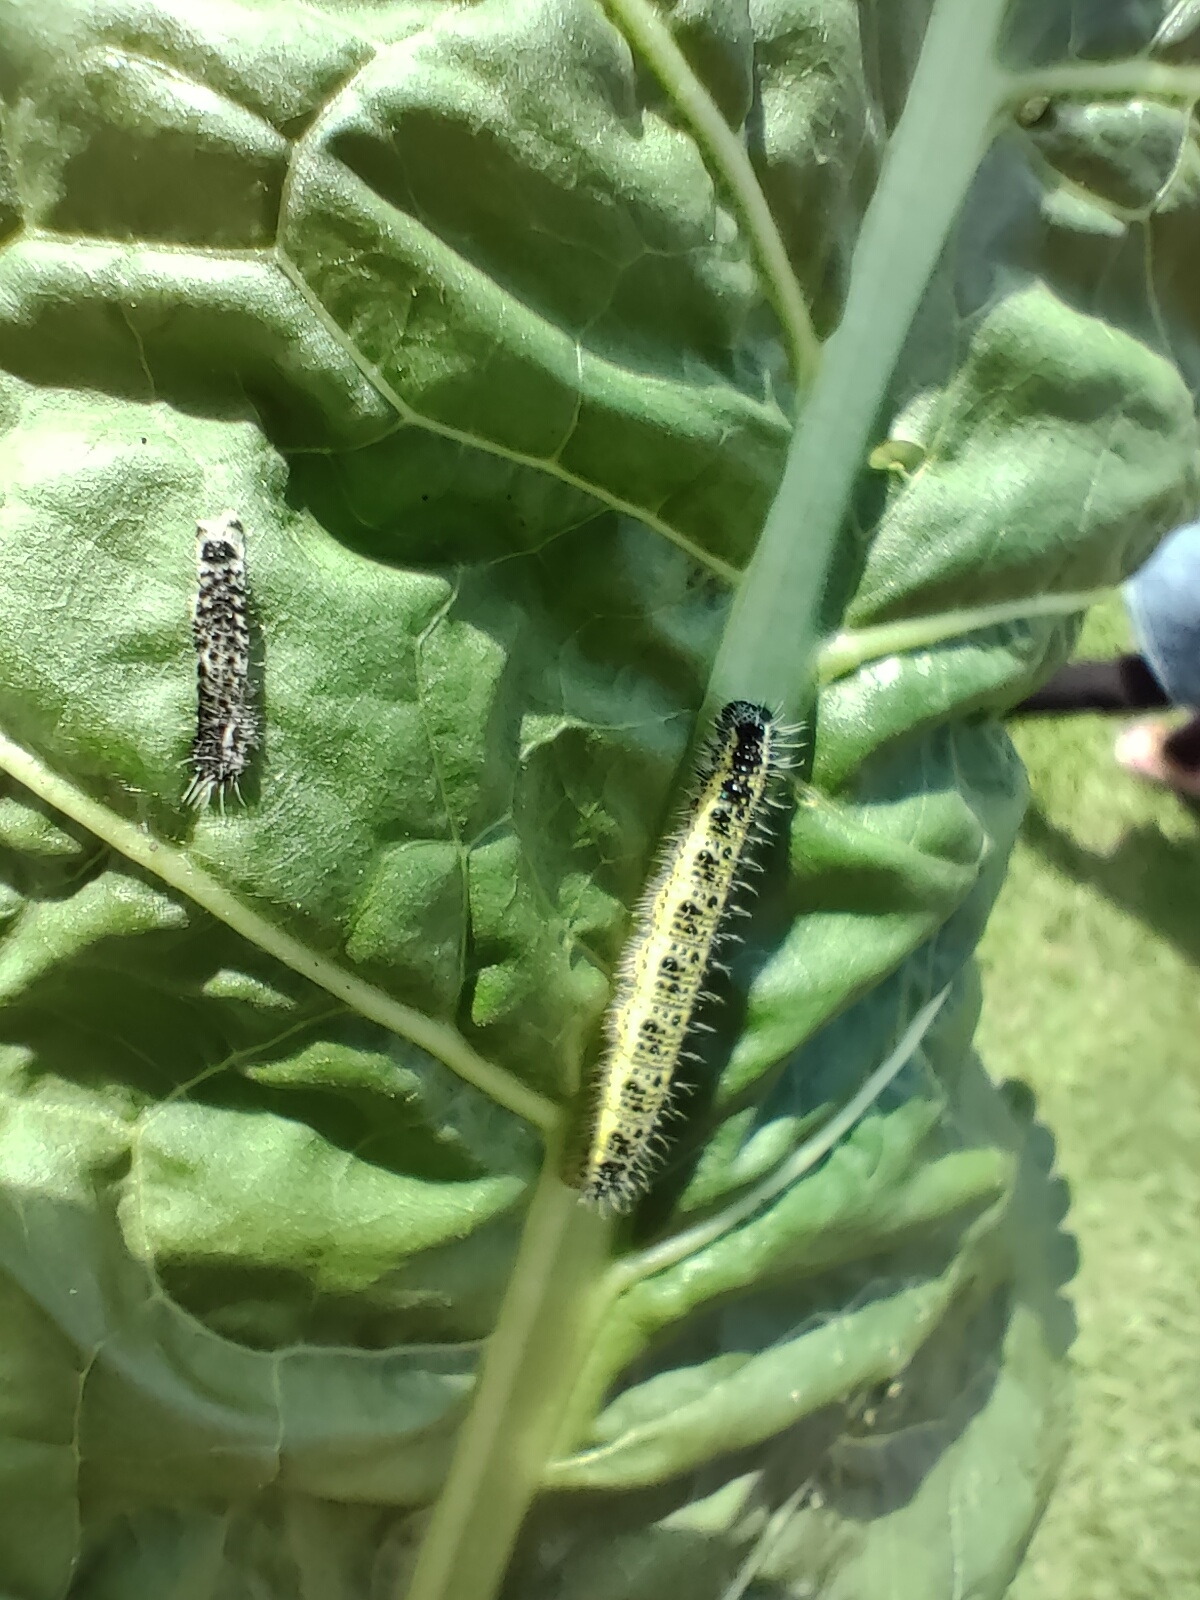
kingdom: Animalia
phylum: Arthropoda
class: Insecta
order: Lepidoptera
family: Pieridae
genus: Pieris
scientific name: Pieris brassicae
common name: Large white
